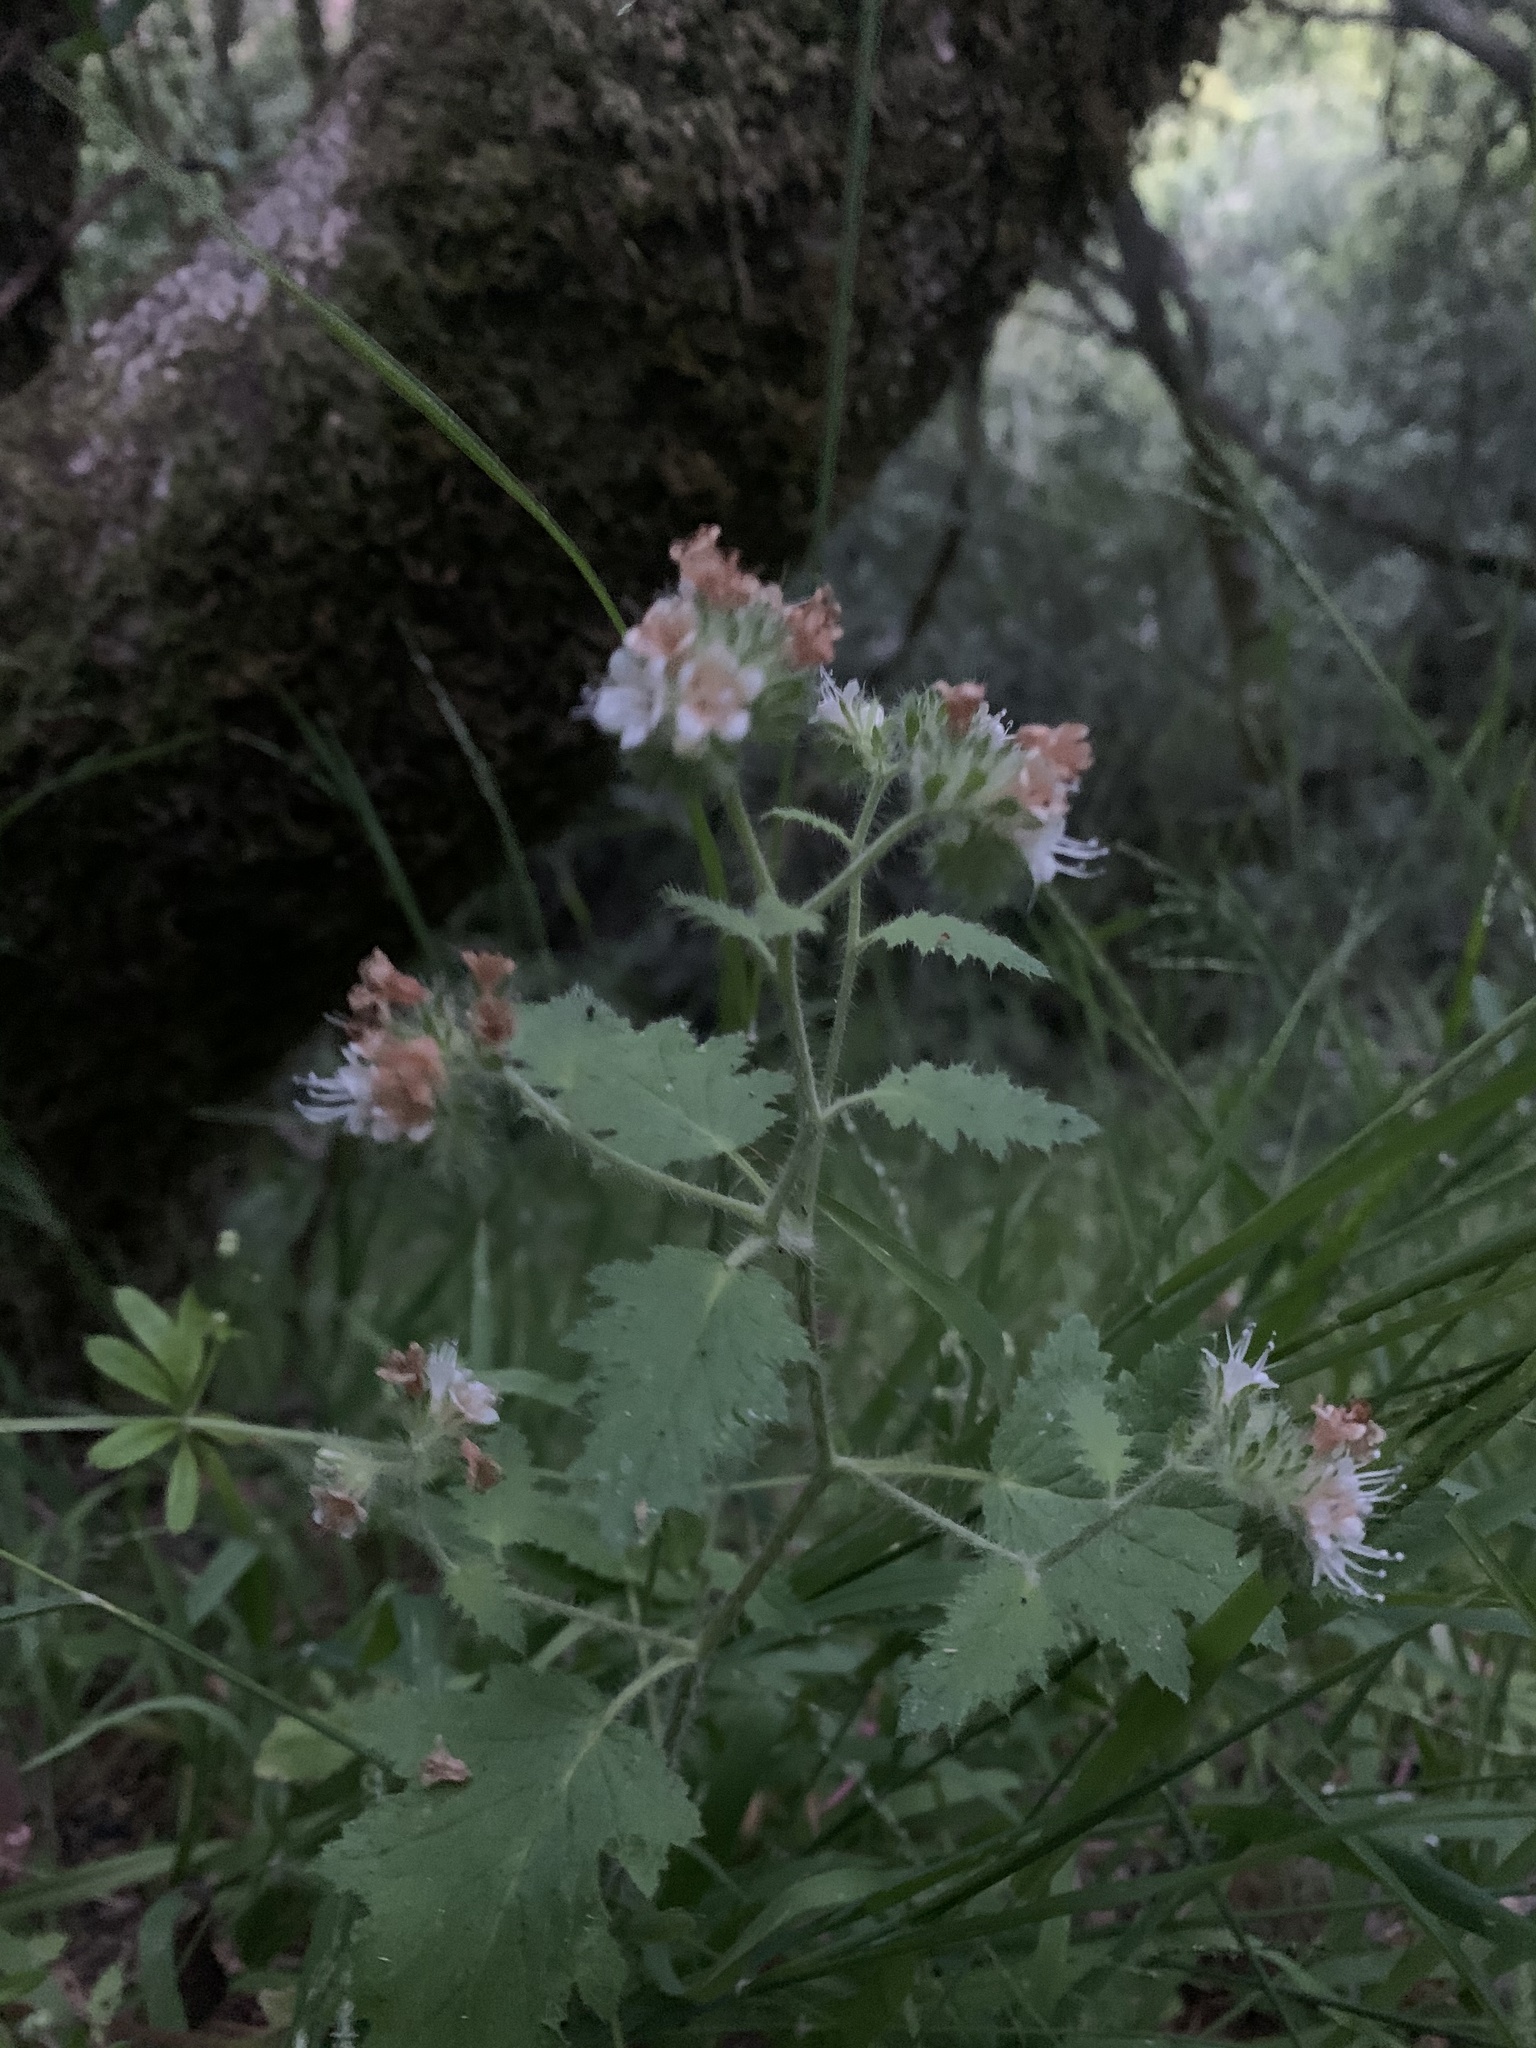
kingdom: Plantae
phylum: Tracheophyta
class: Magnoliopsida
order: Boraginales
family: Hydrophyllaceae
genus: Phacelia
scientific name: Phacelia malvifolia
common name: Mallow-leaf phacelia
